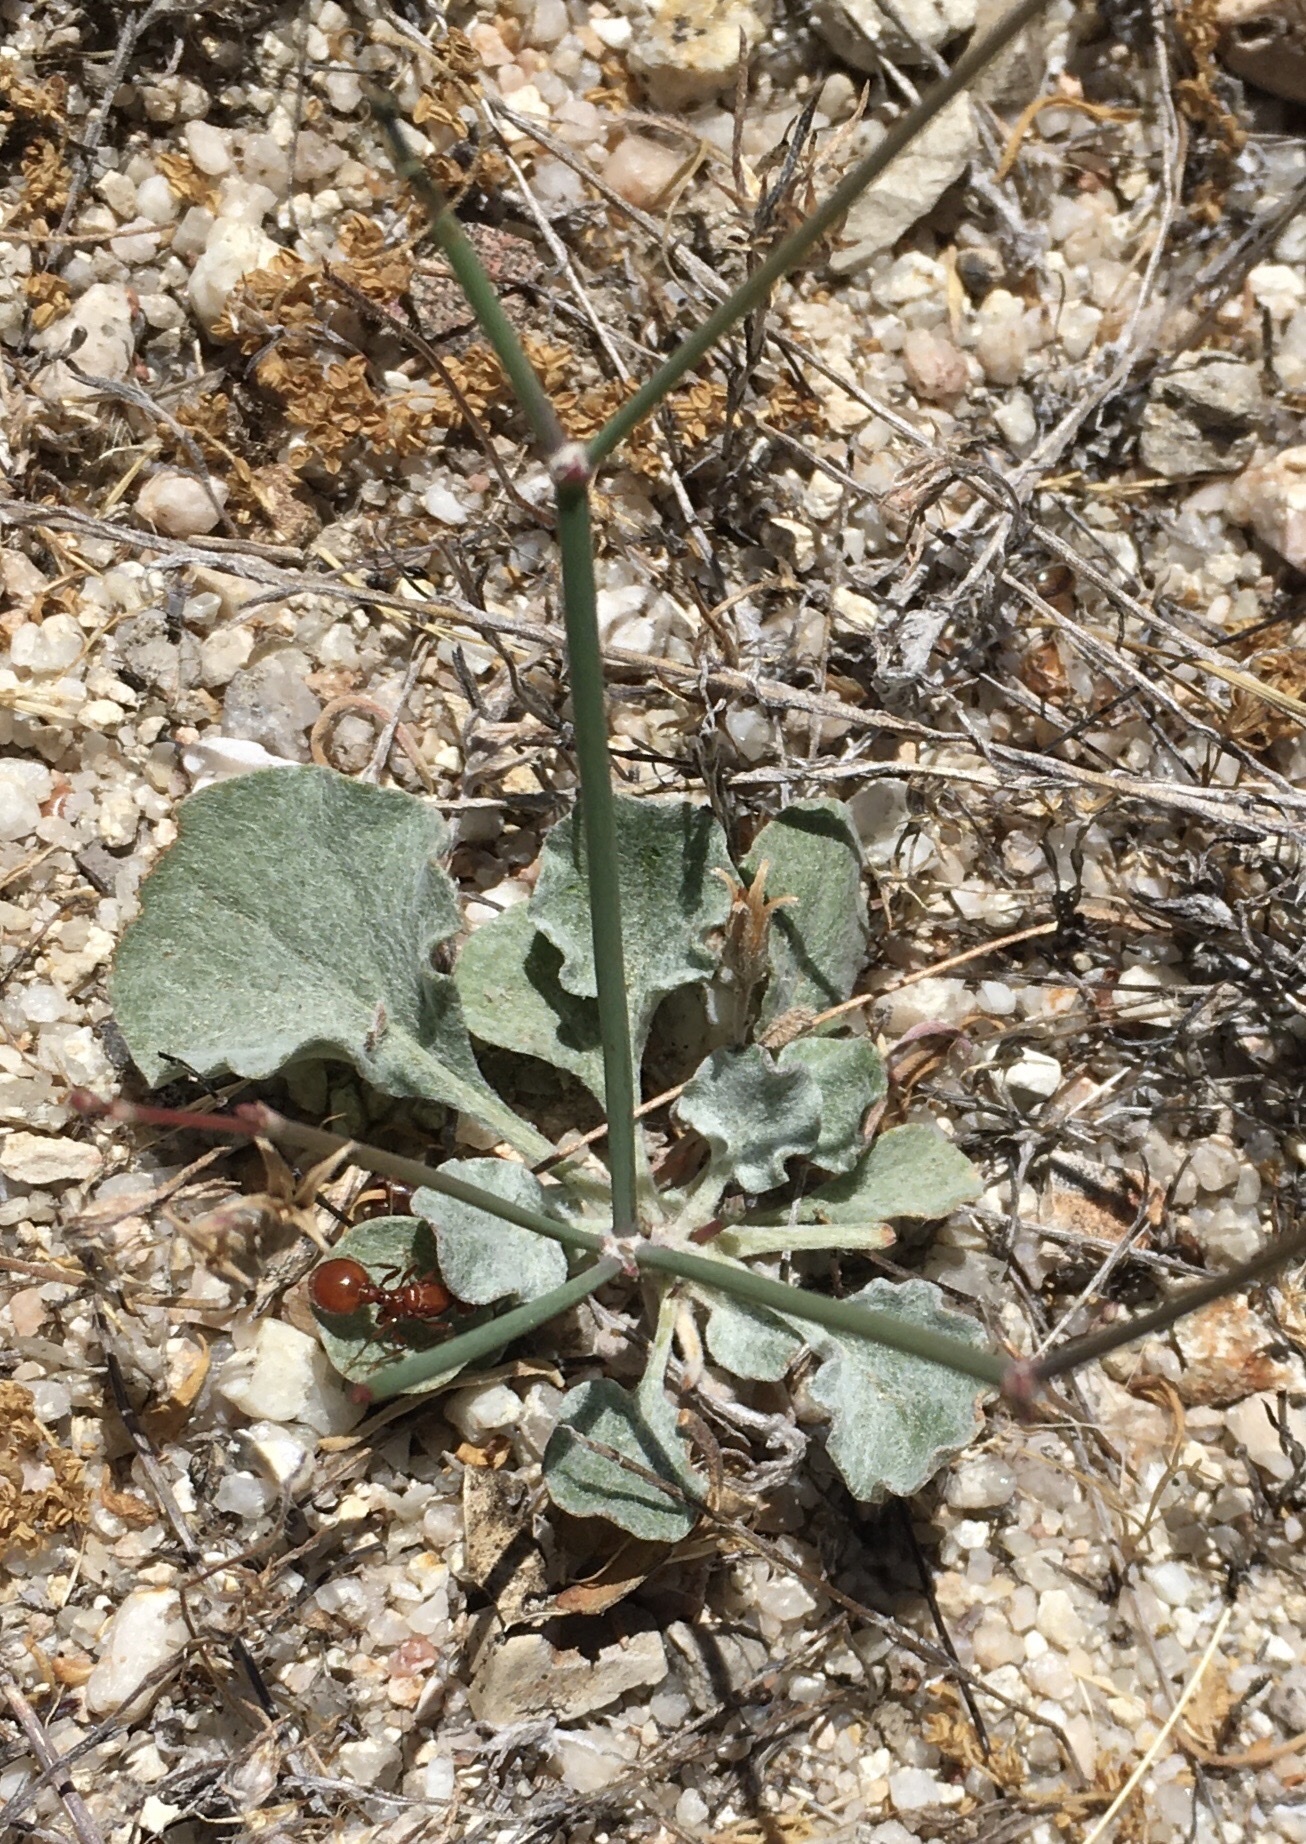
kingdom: Plantae
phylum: Tracheophyta
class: Magnoliopsida
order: Caryophyllales
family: Polygonaceae
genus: Eriogonum
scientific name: Eriogonum elegans
